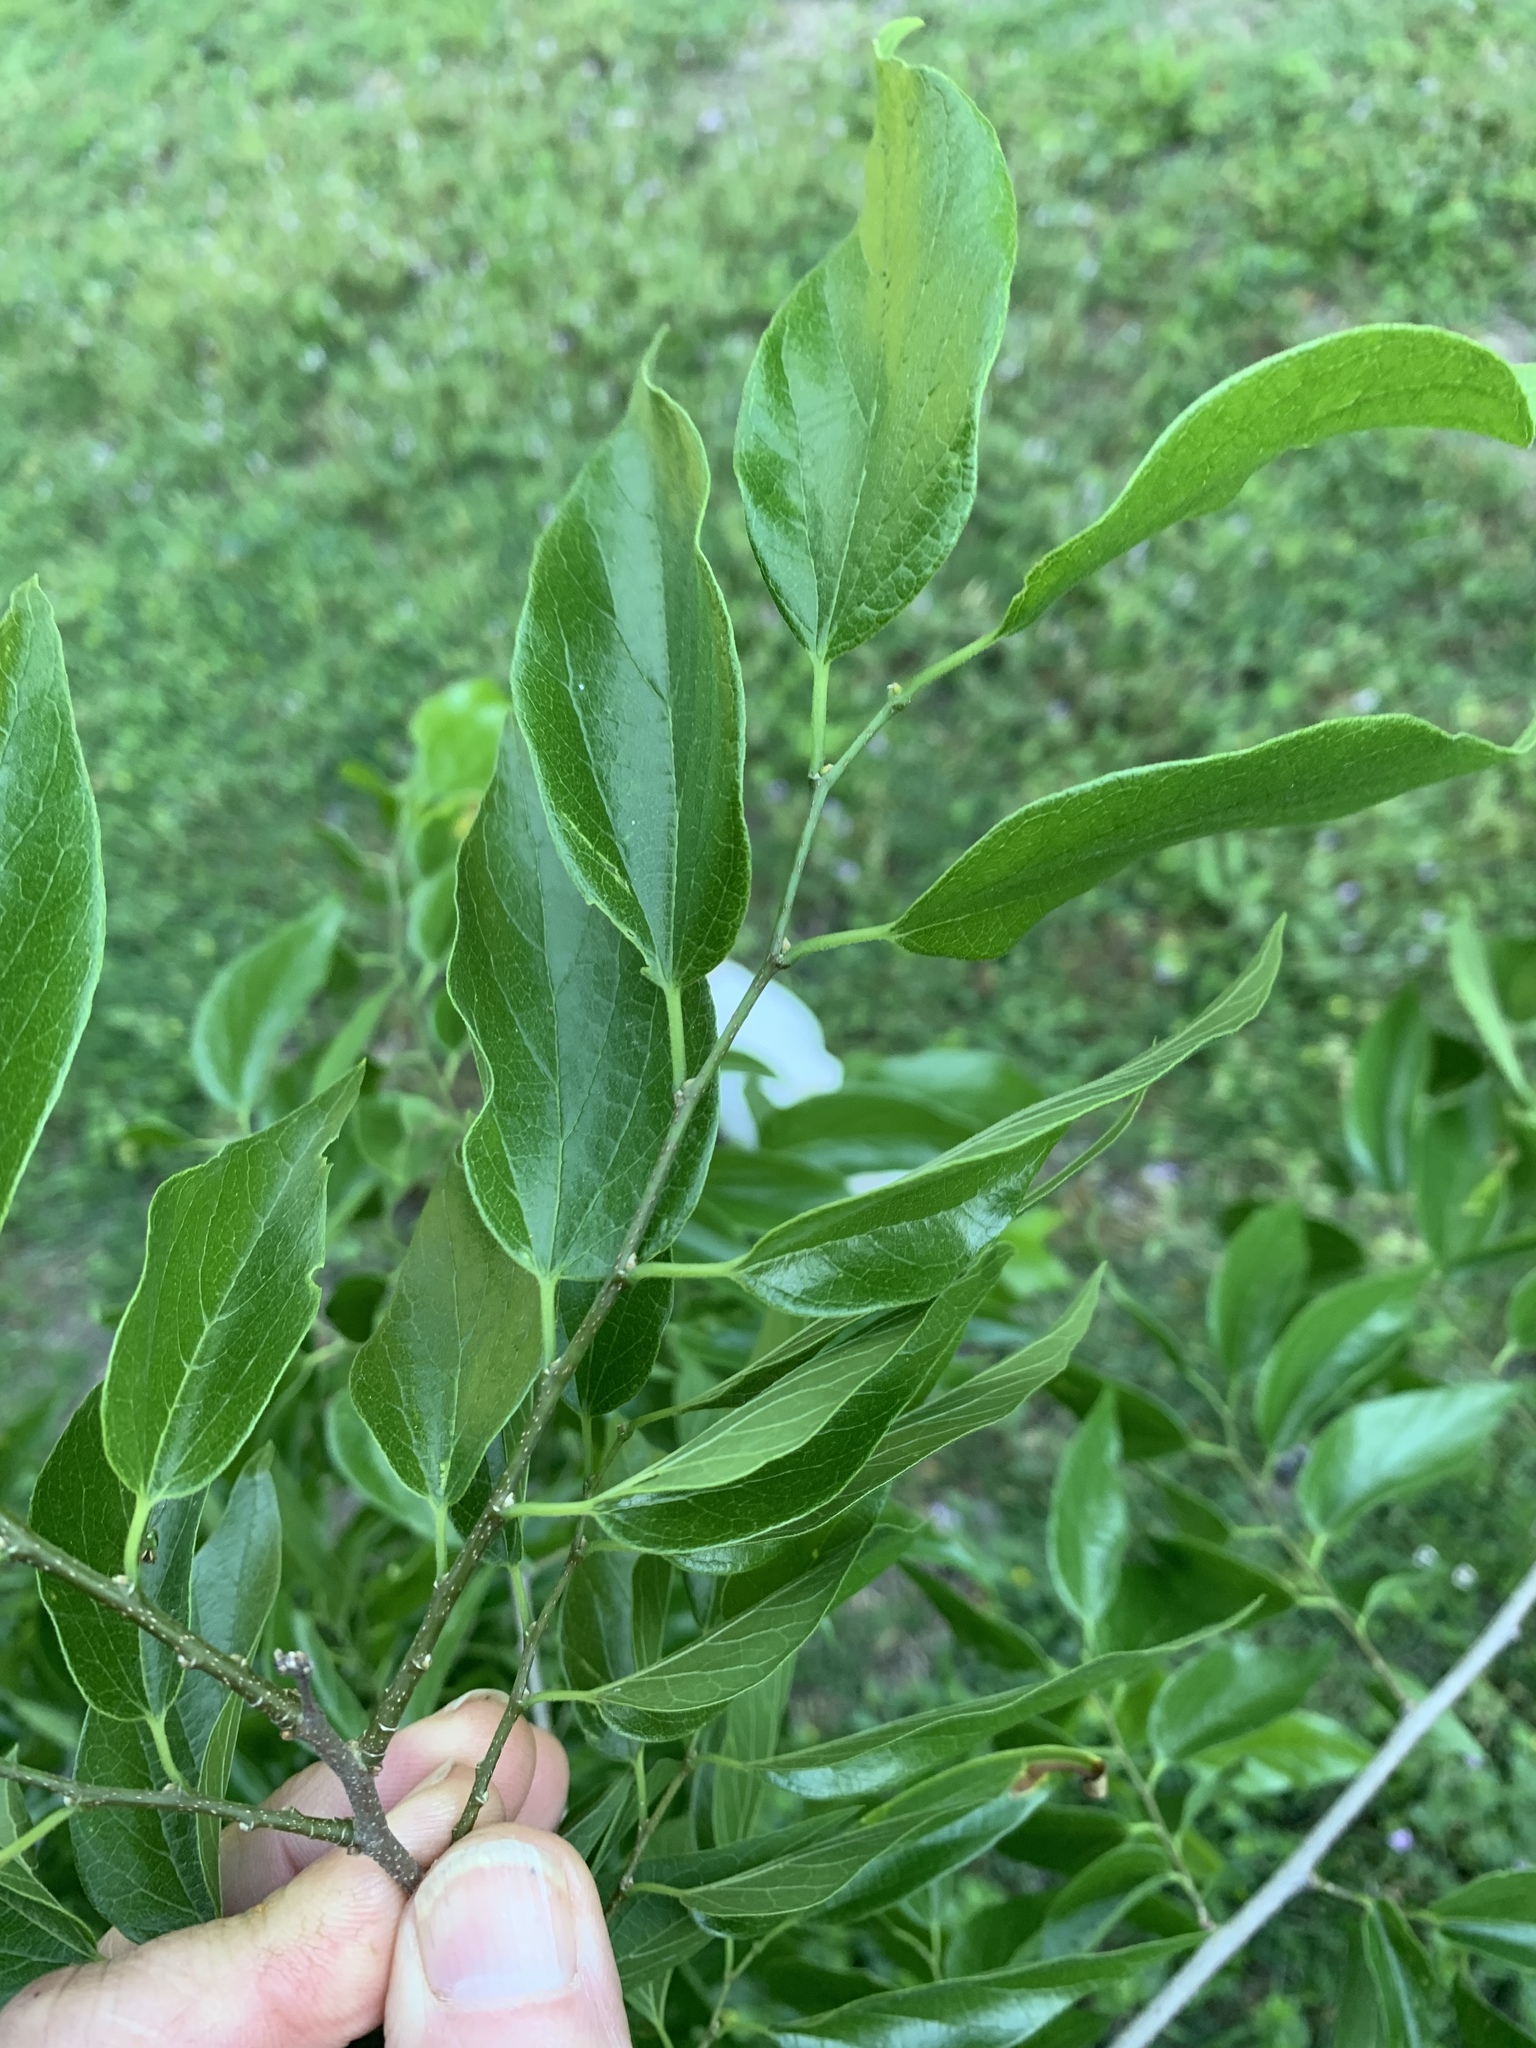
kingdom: Plantae
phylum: Tracheophyta
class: Magnoliopsida
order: Rosales
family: Cannabaceae
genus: Celtis
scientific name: Celtis laevigata
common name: Sugarberry
